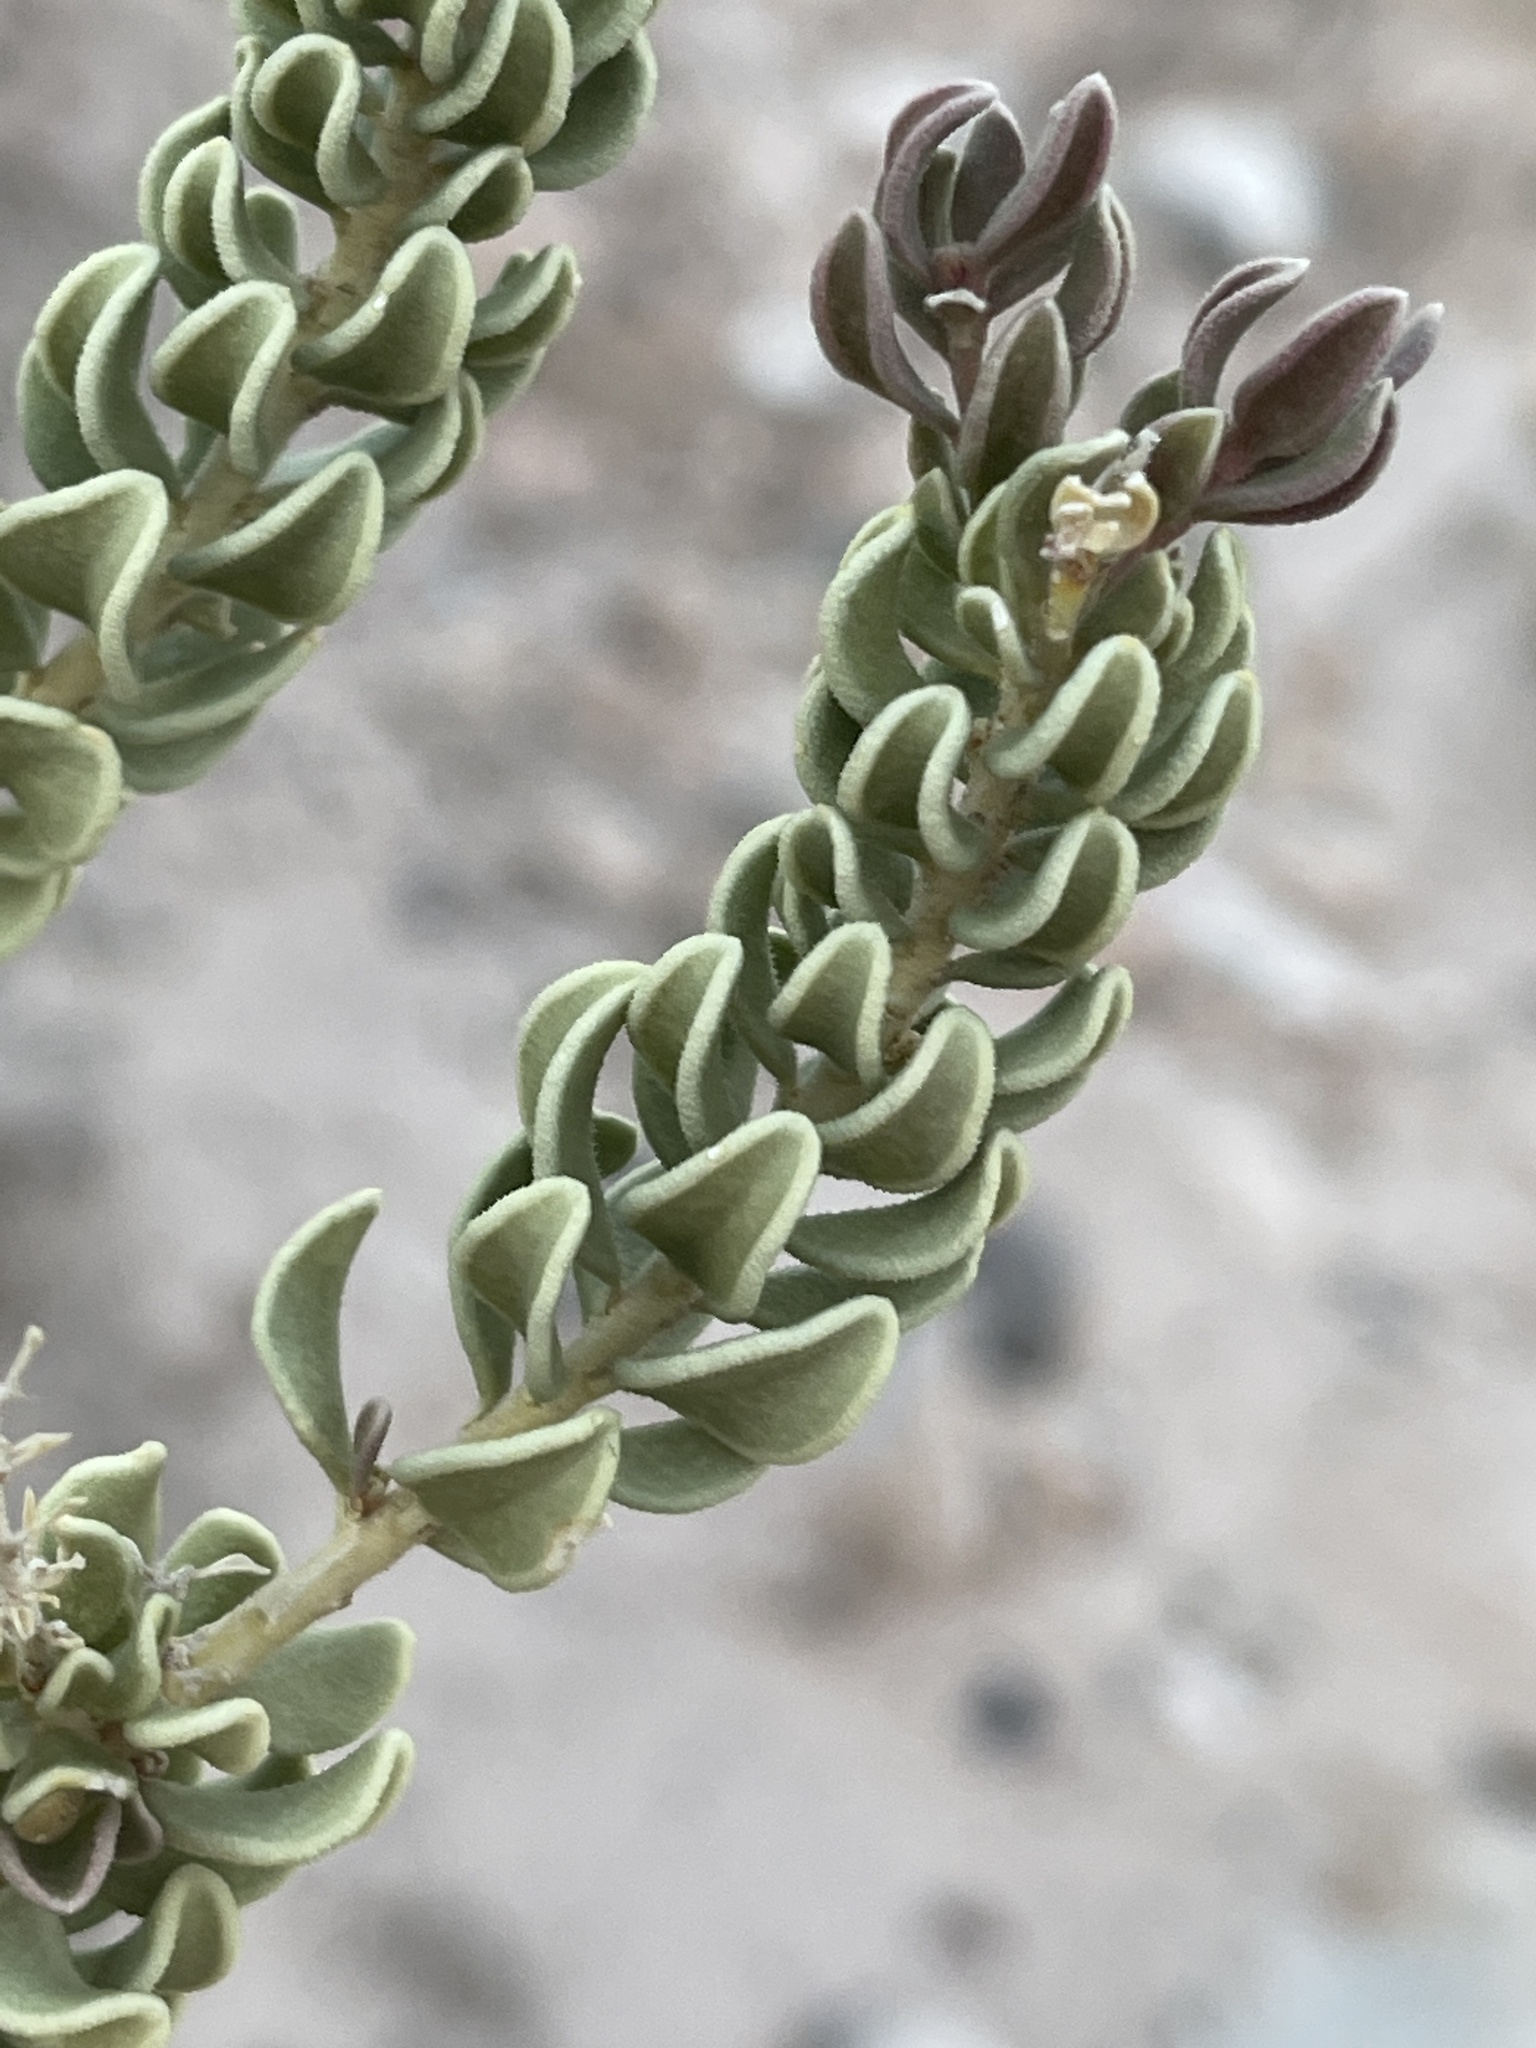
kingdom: Plantae
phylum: Tracheophyta
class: Magnoliopsida
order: Celastrales
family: Celastraceae
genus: Mortonia
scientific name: Mortonia utahensis
